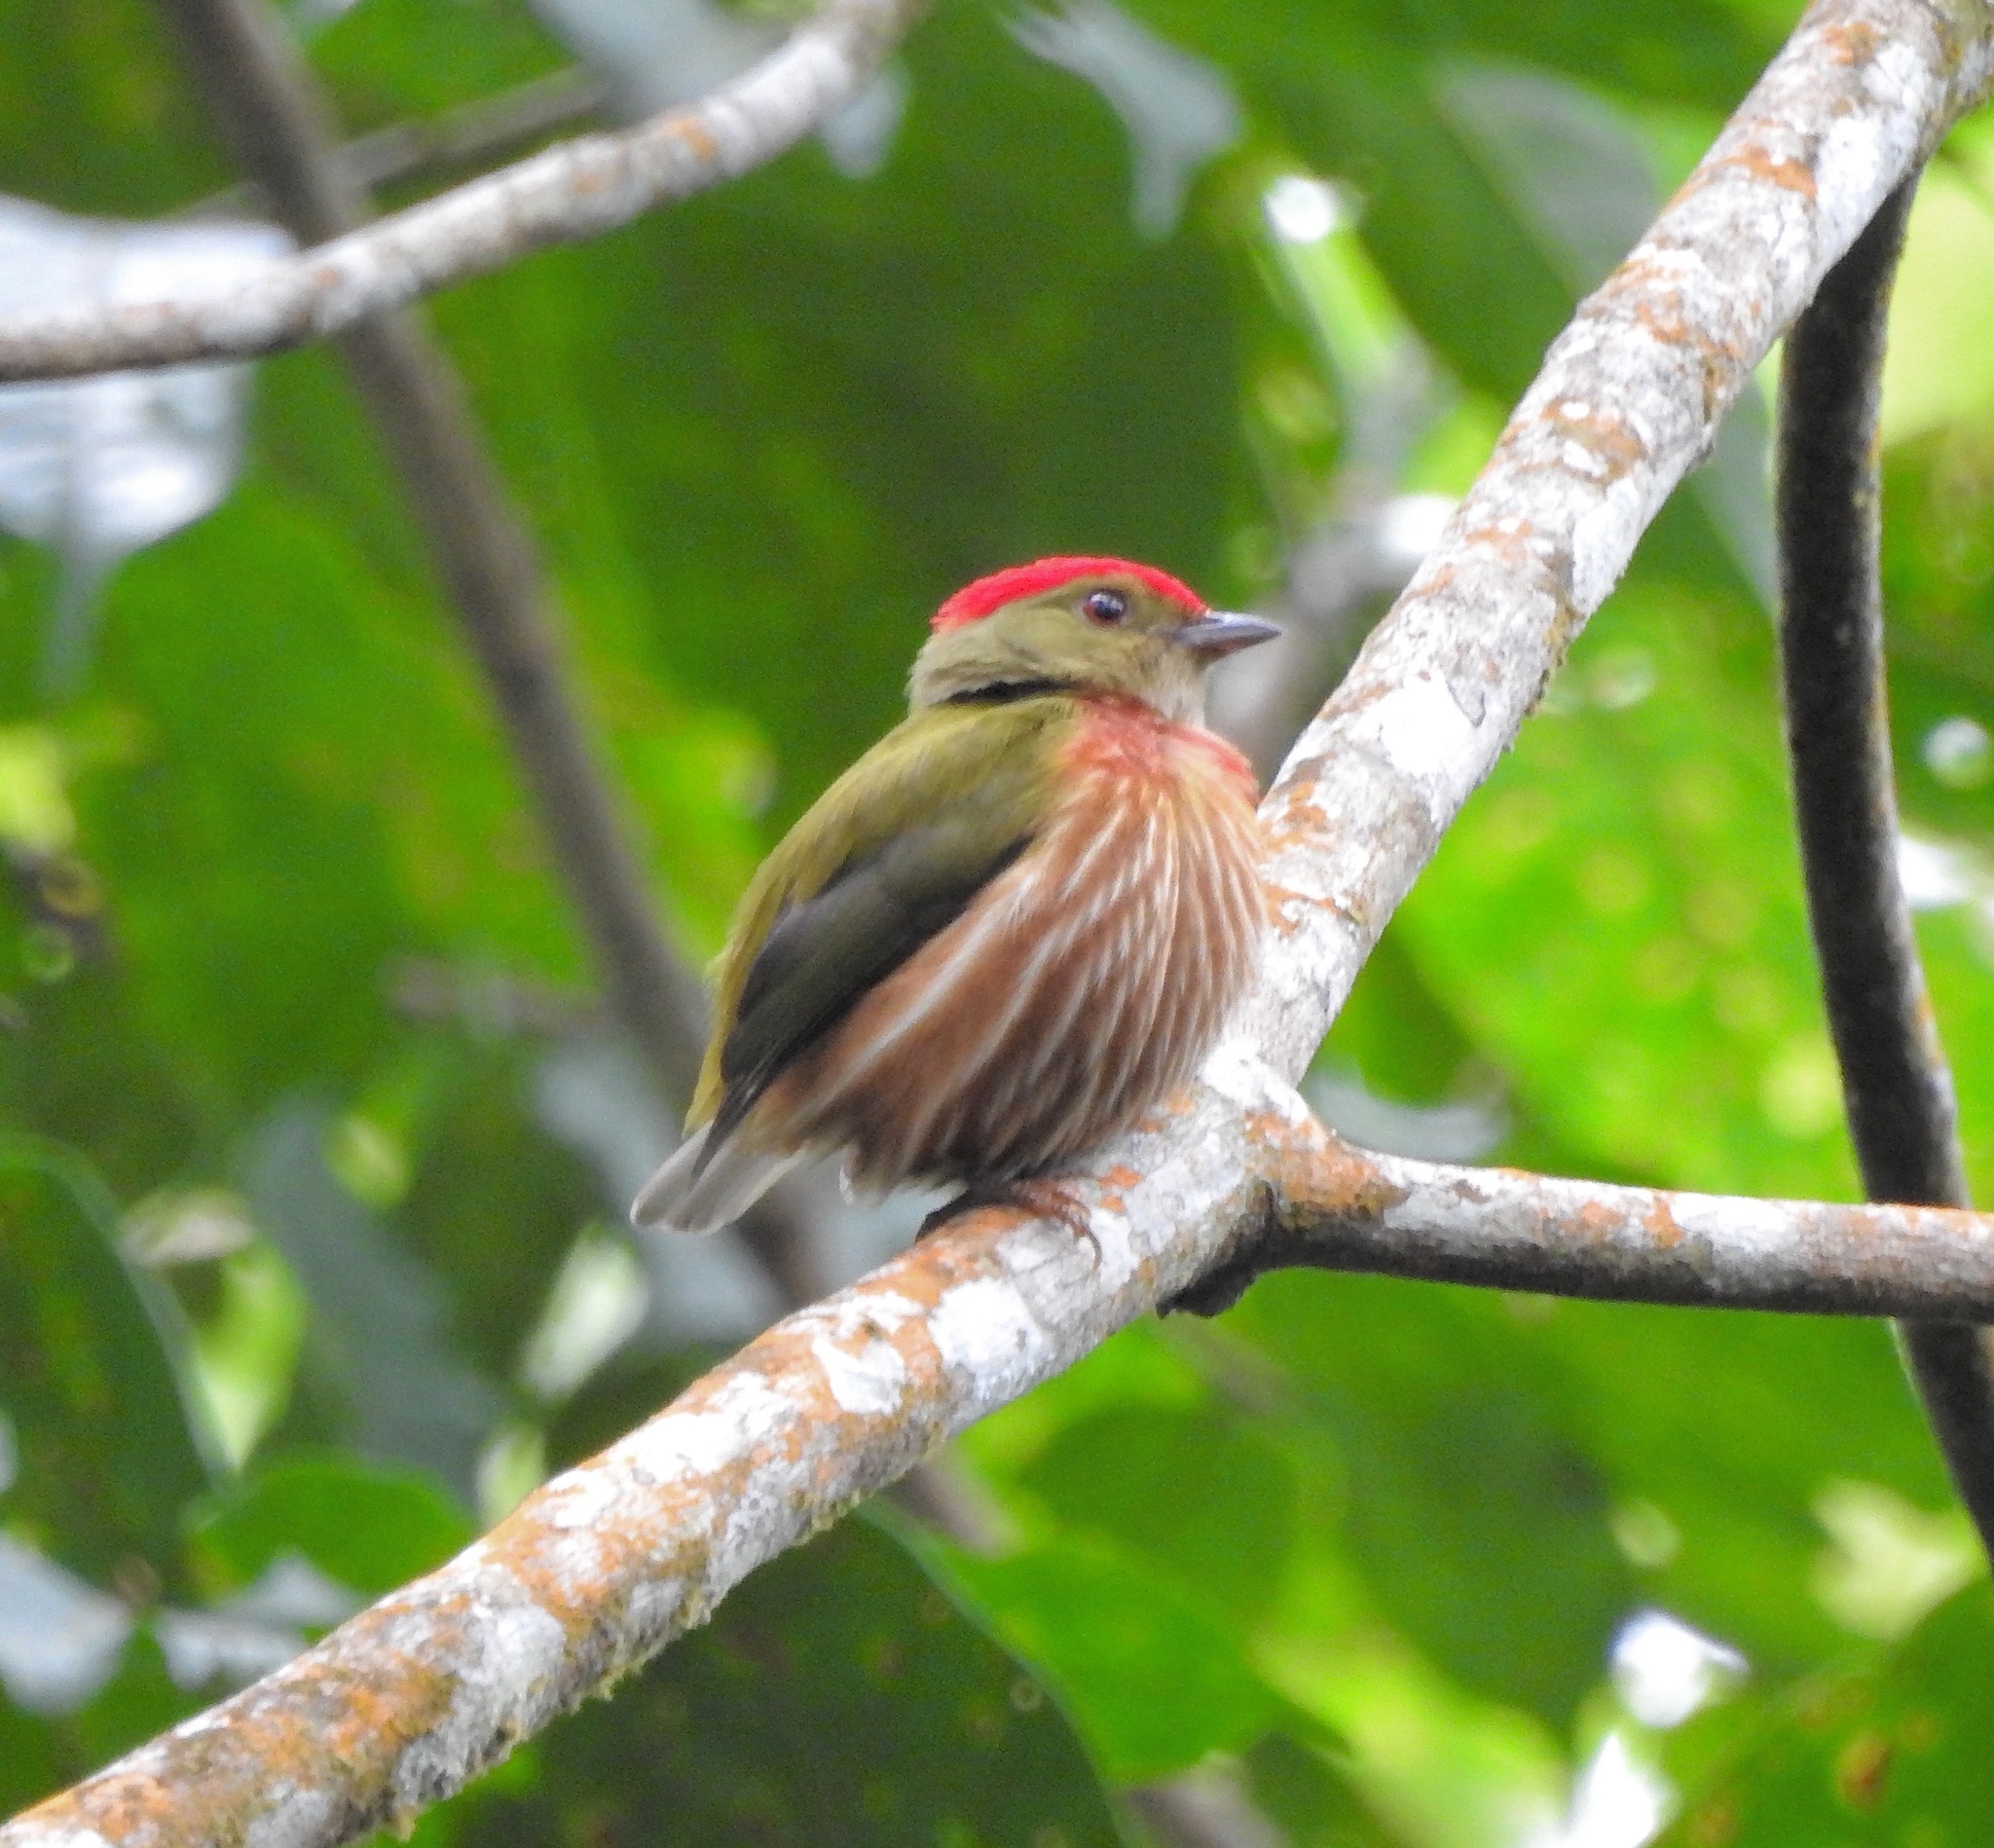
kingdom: Animalia
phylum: Chordata
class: Aves
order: Passeriformes
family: Pipridae
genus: Machaeropterus
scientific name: Machaeropterus striolatus
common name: Striolated manakin
